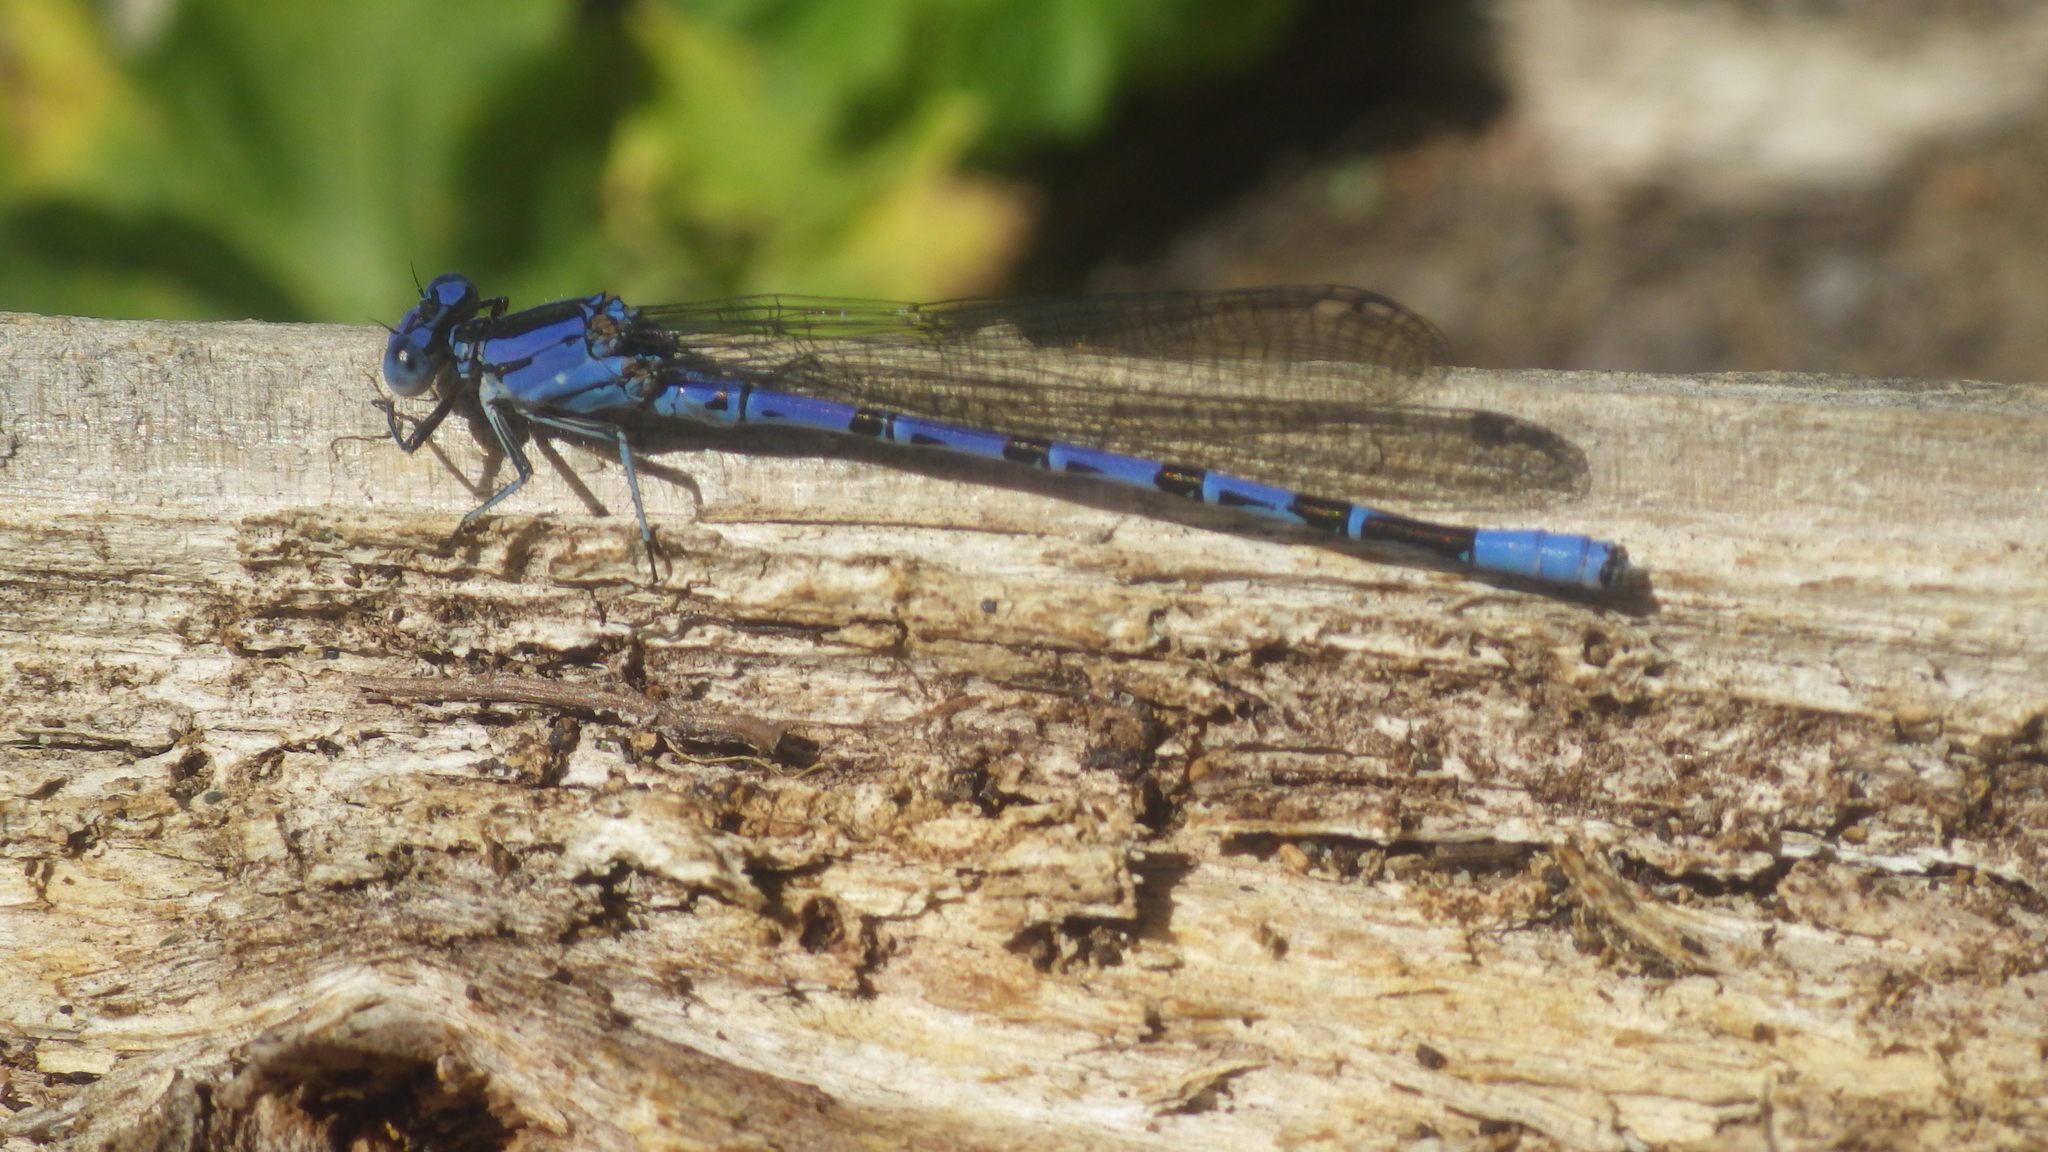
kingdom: Animalia
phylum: Arthropoda
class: Insecta
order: Odonata
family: Coenagrionidae
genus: Argia
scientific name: Argia vivida
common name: Vivid dancer
